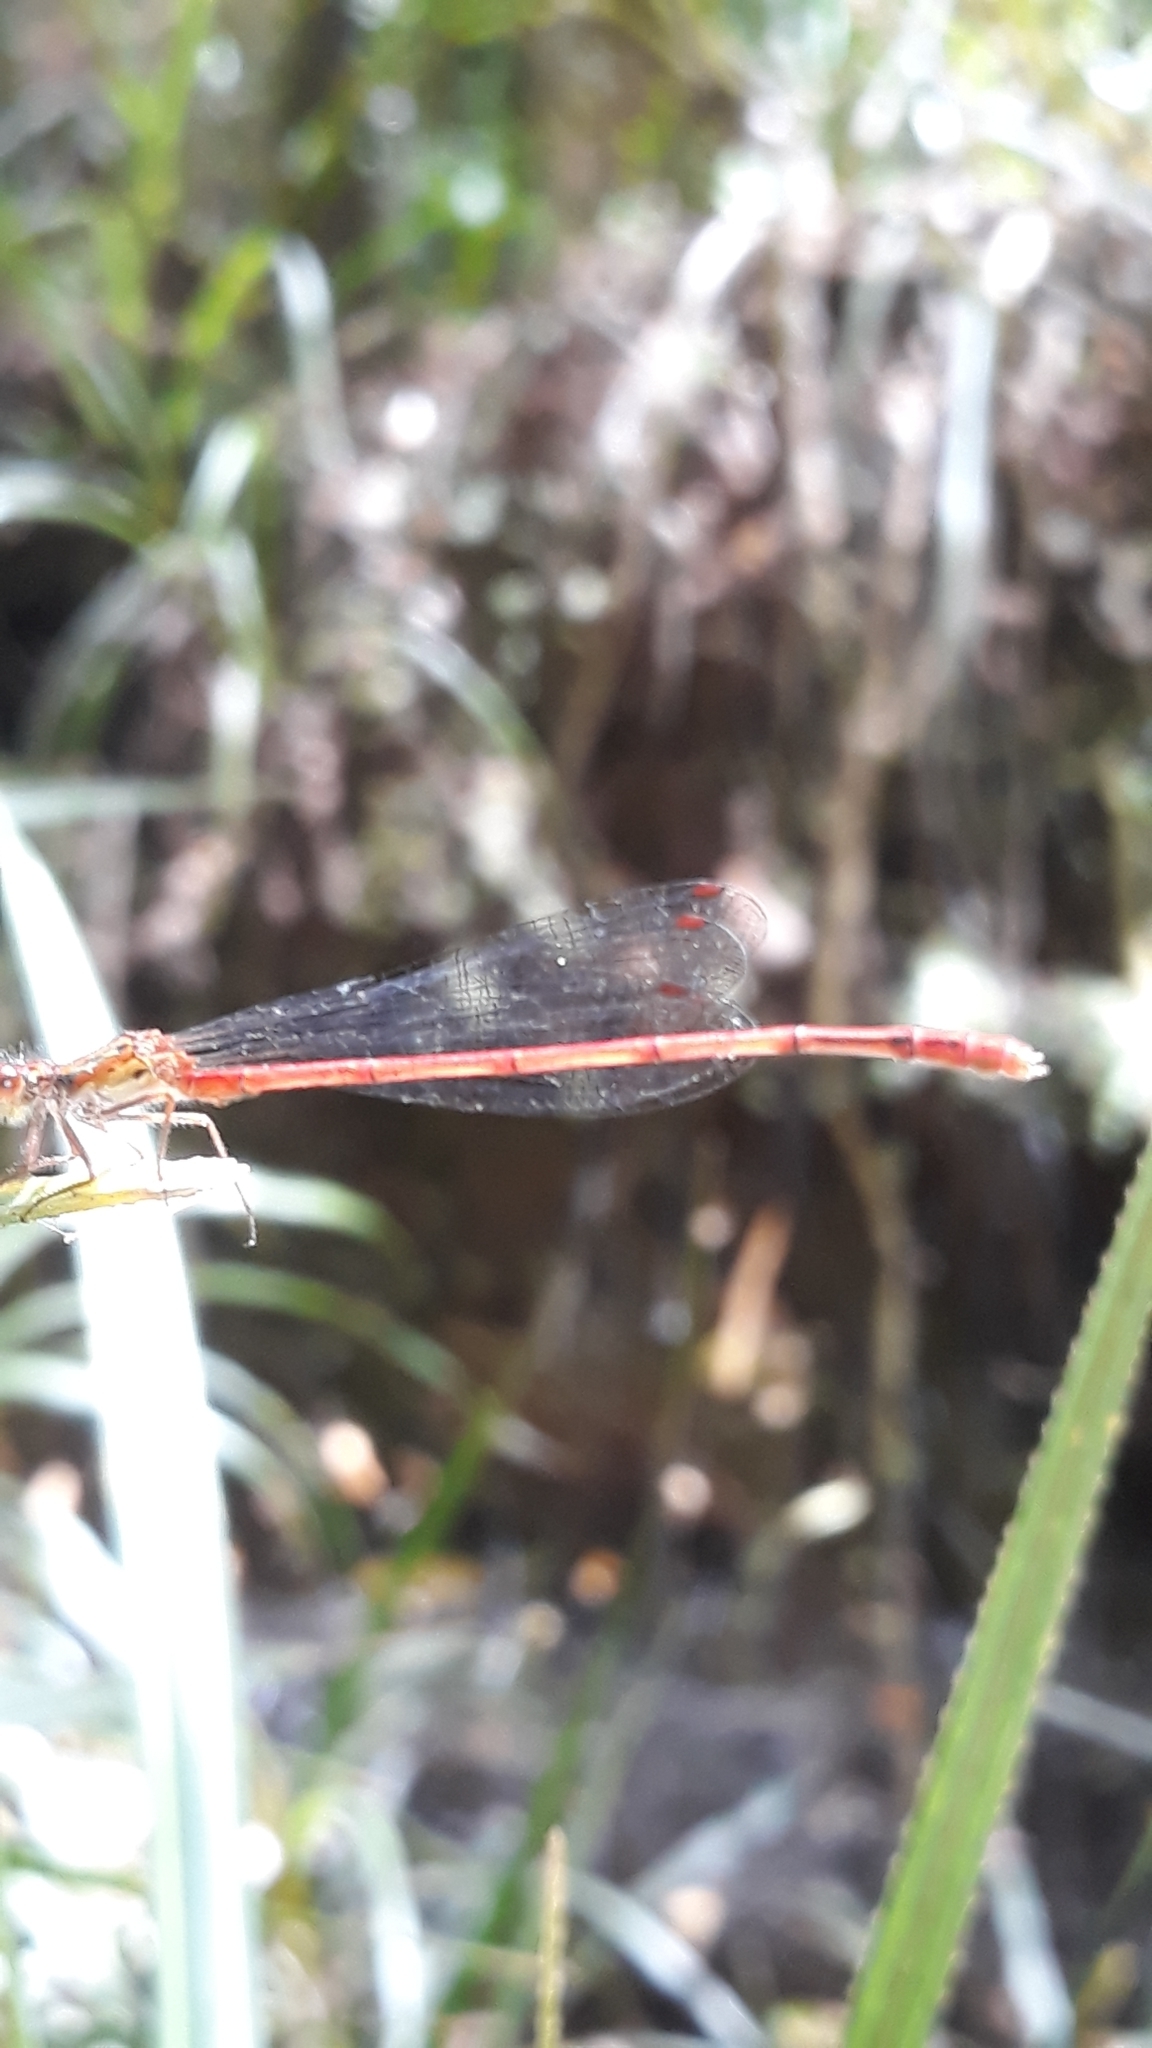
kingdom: Animalia
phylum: Arthropoda
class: Insecta
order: Odonata
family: Coenagrionidae
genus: Xanthocnemis
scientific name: Xanthocnemis zealandica
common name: Common redcoat damselfly
